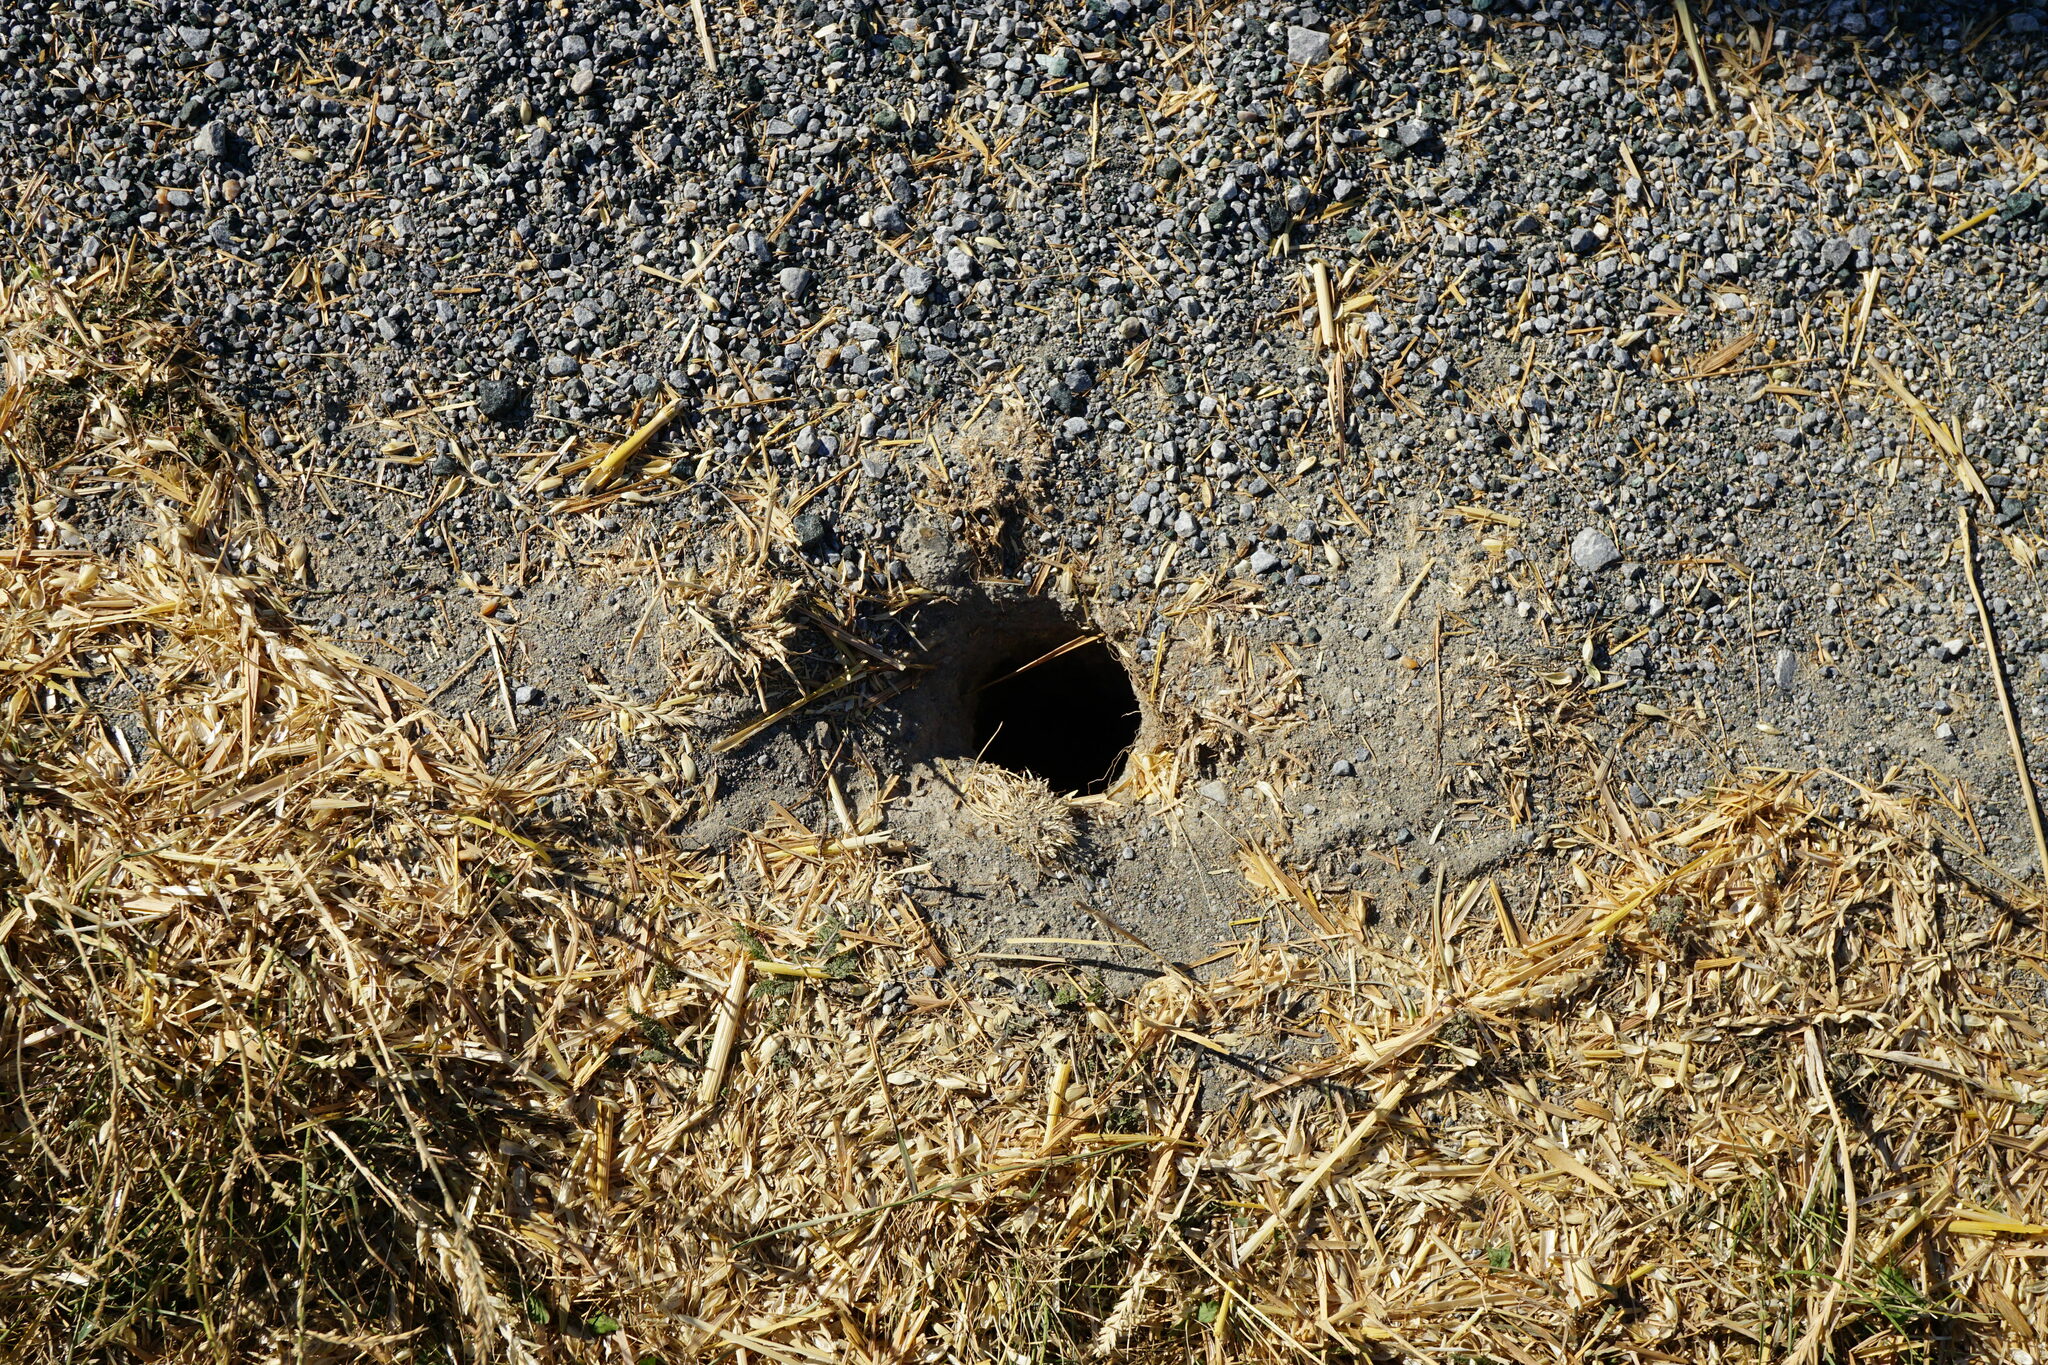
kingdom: Animalia
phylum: Chordata
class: Mammalia
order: Rodentia
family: Sciuridae
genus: Spermophilus
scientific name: Spermophilus citellus
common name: European ground squirrel
